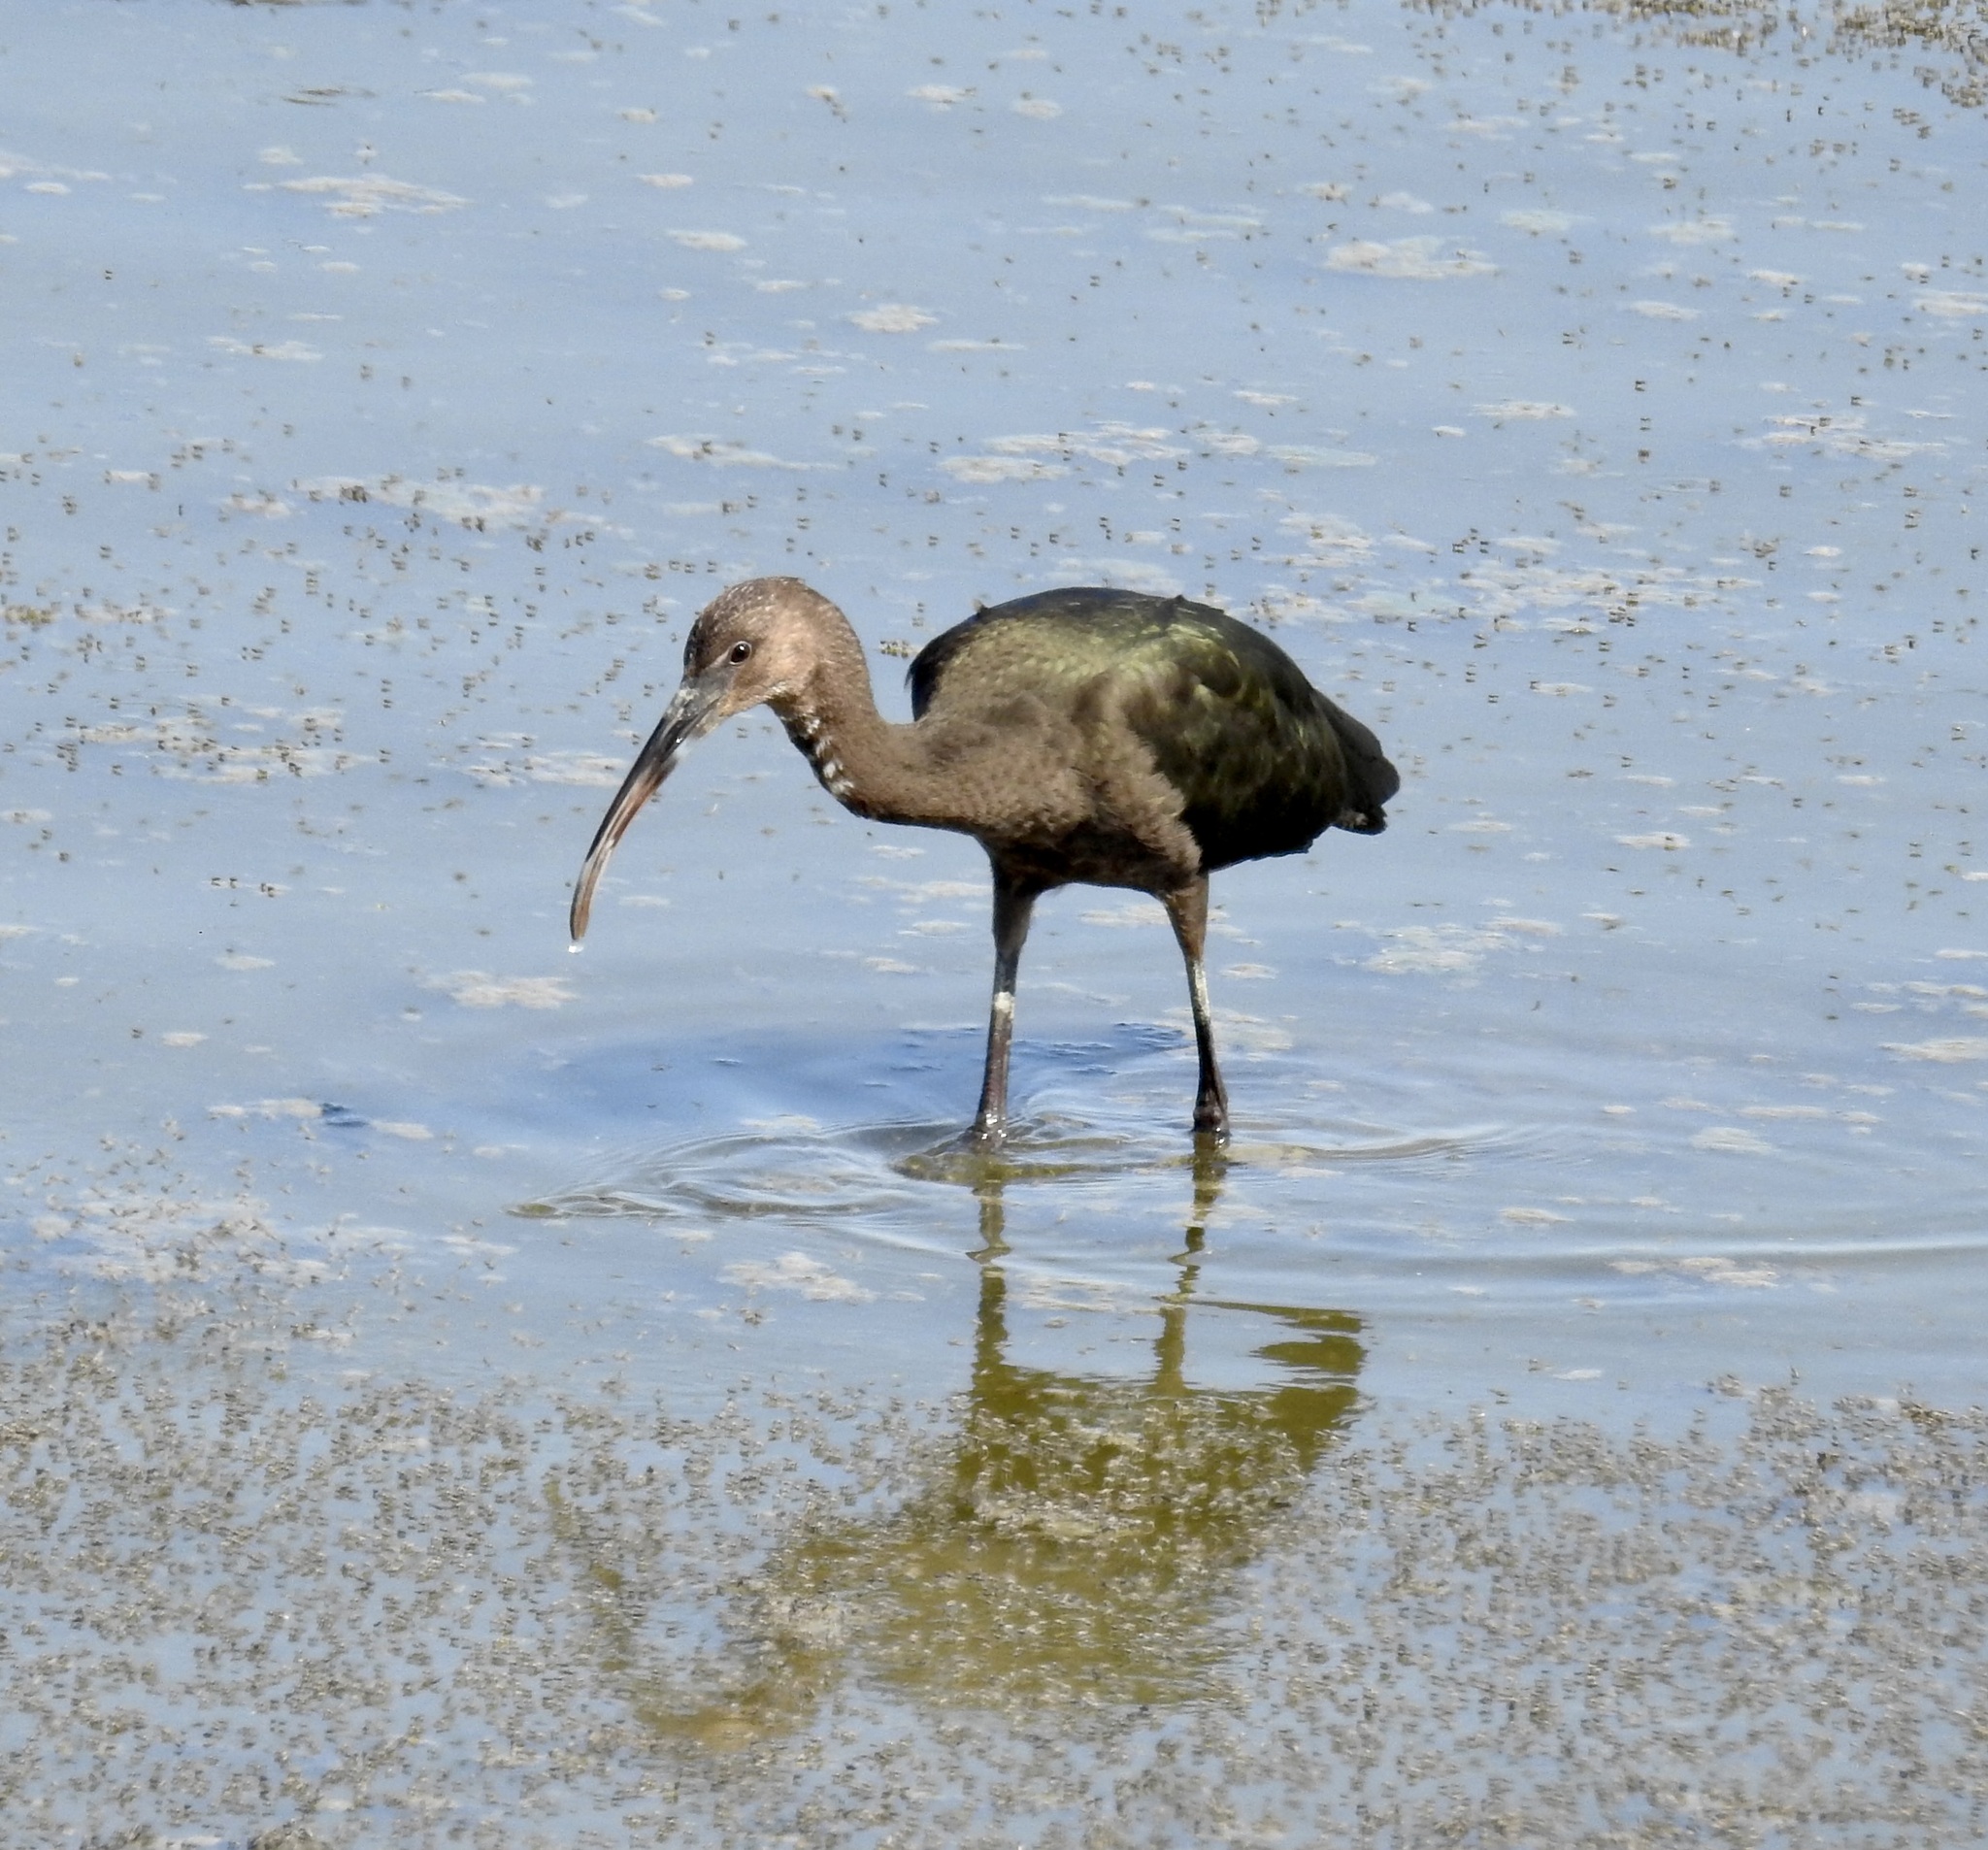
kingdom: Animalia
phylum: Chordata
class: Aves
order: Pelecaniformes
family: Threskiornithidae
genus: Plegadis
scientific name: Plegadis chihi
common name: White-faced ibis
